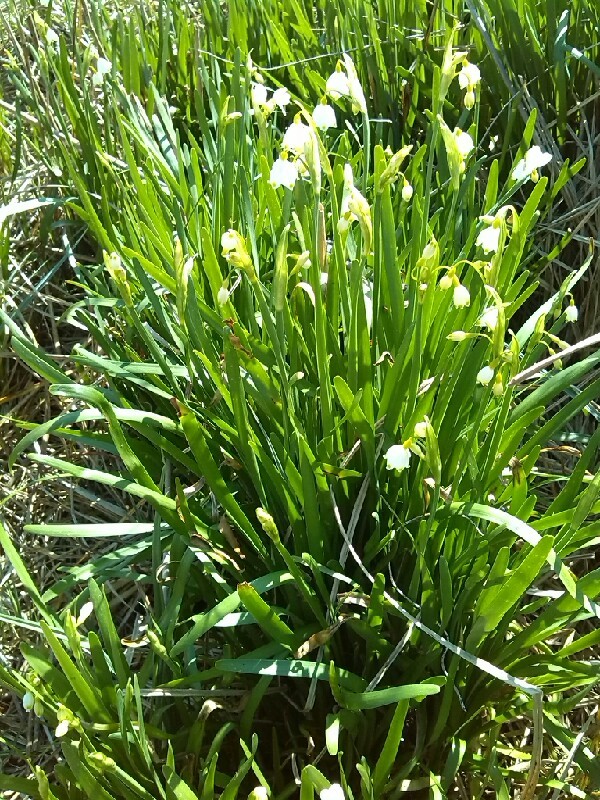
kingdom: Plantae
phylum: Tracheophyta
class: Liliopsida
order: Asparagales
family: Amaryllidaceae
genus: Leucojum
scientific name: Leucojum aestivum
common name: Summer snowflake
